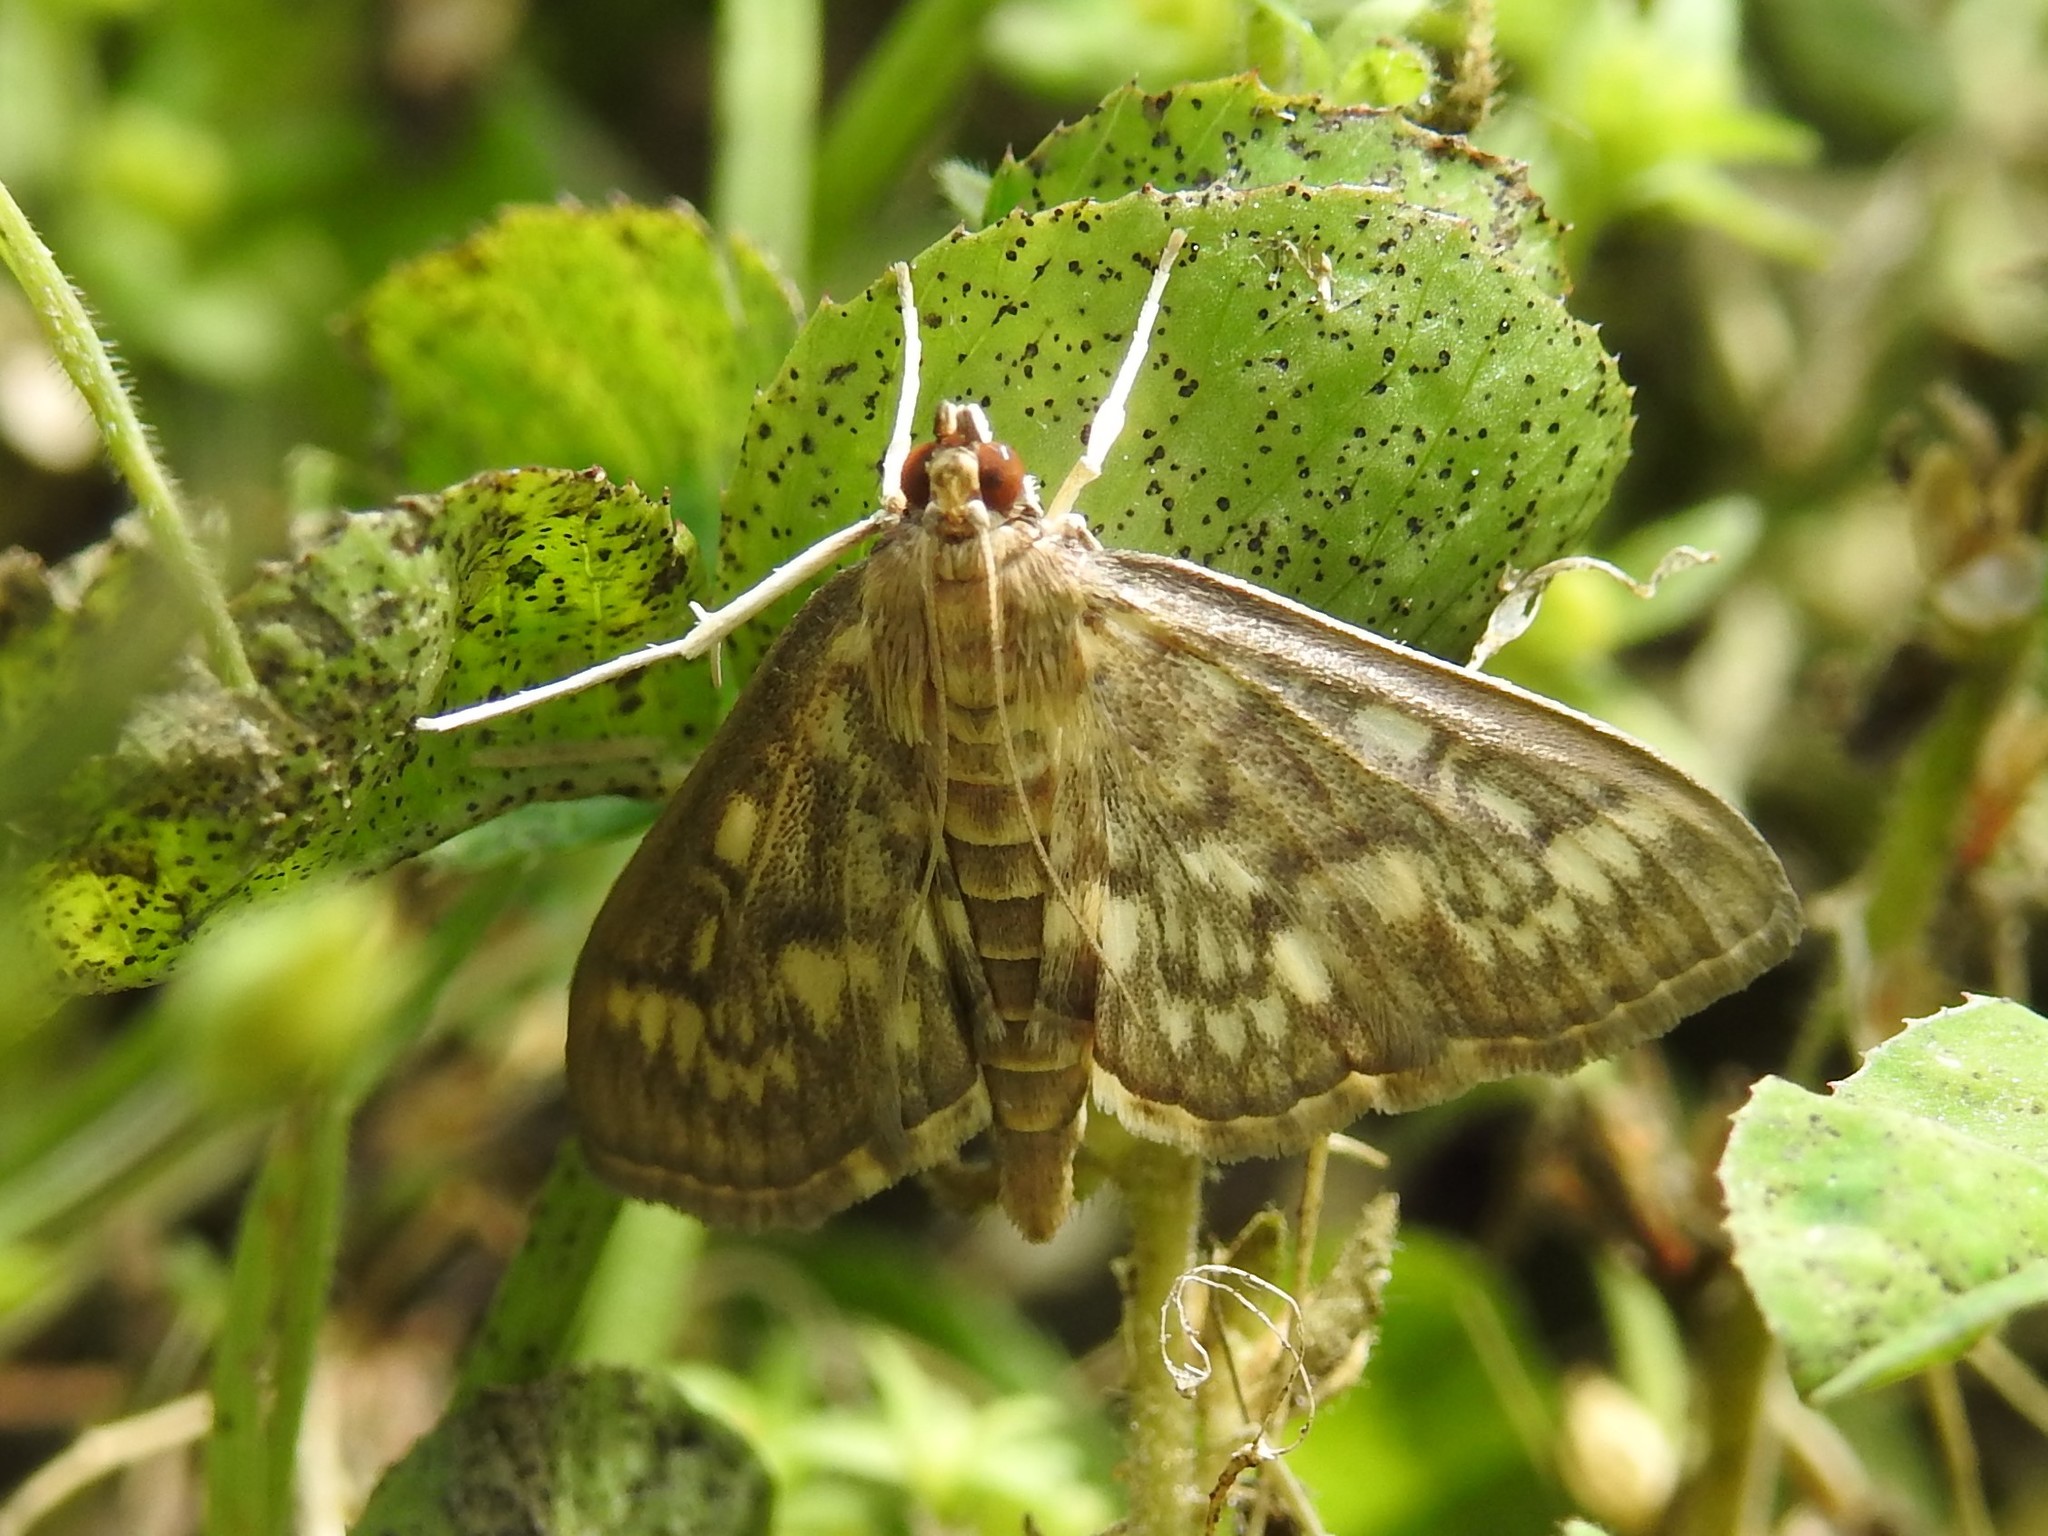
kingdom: Animalia
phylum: Arthropoda
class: Insecta
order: Lepidoptera
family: Crambidae
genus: Herpetogramma
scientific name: Herpetogramma thestealis
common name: Zigzag herpetogramma moth
